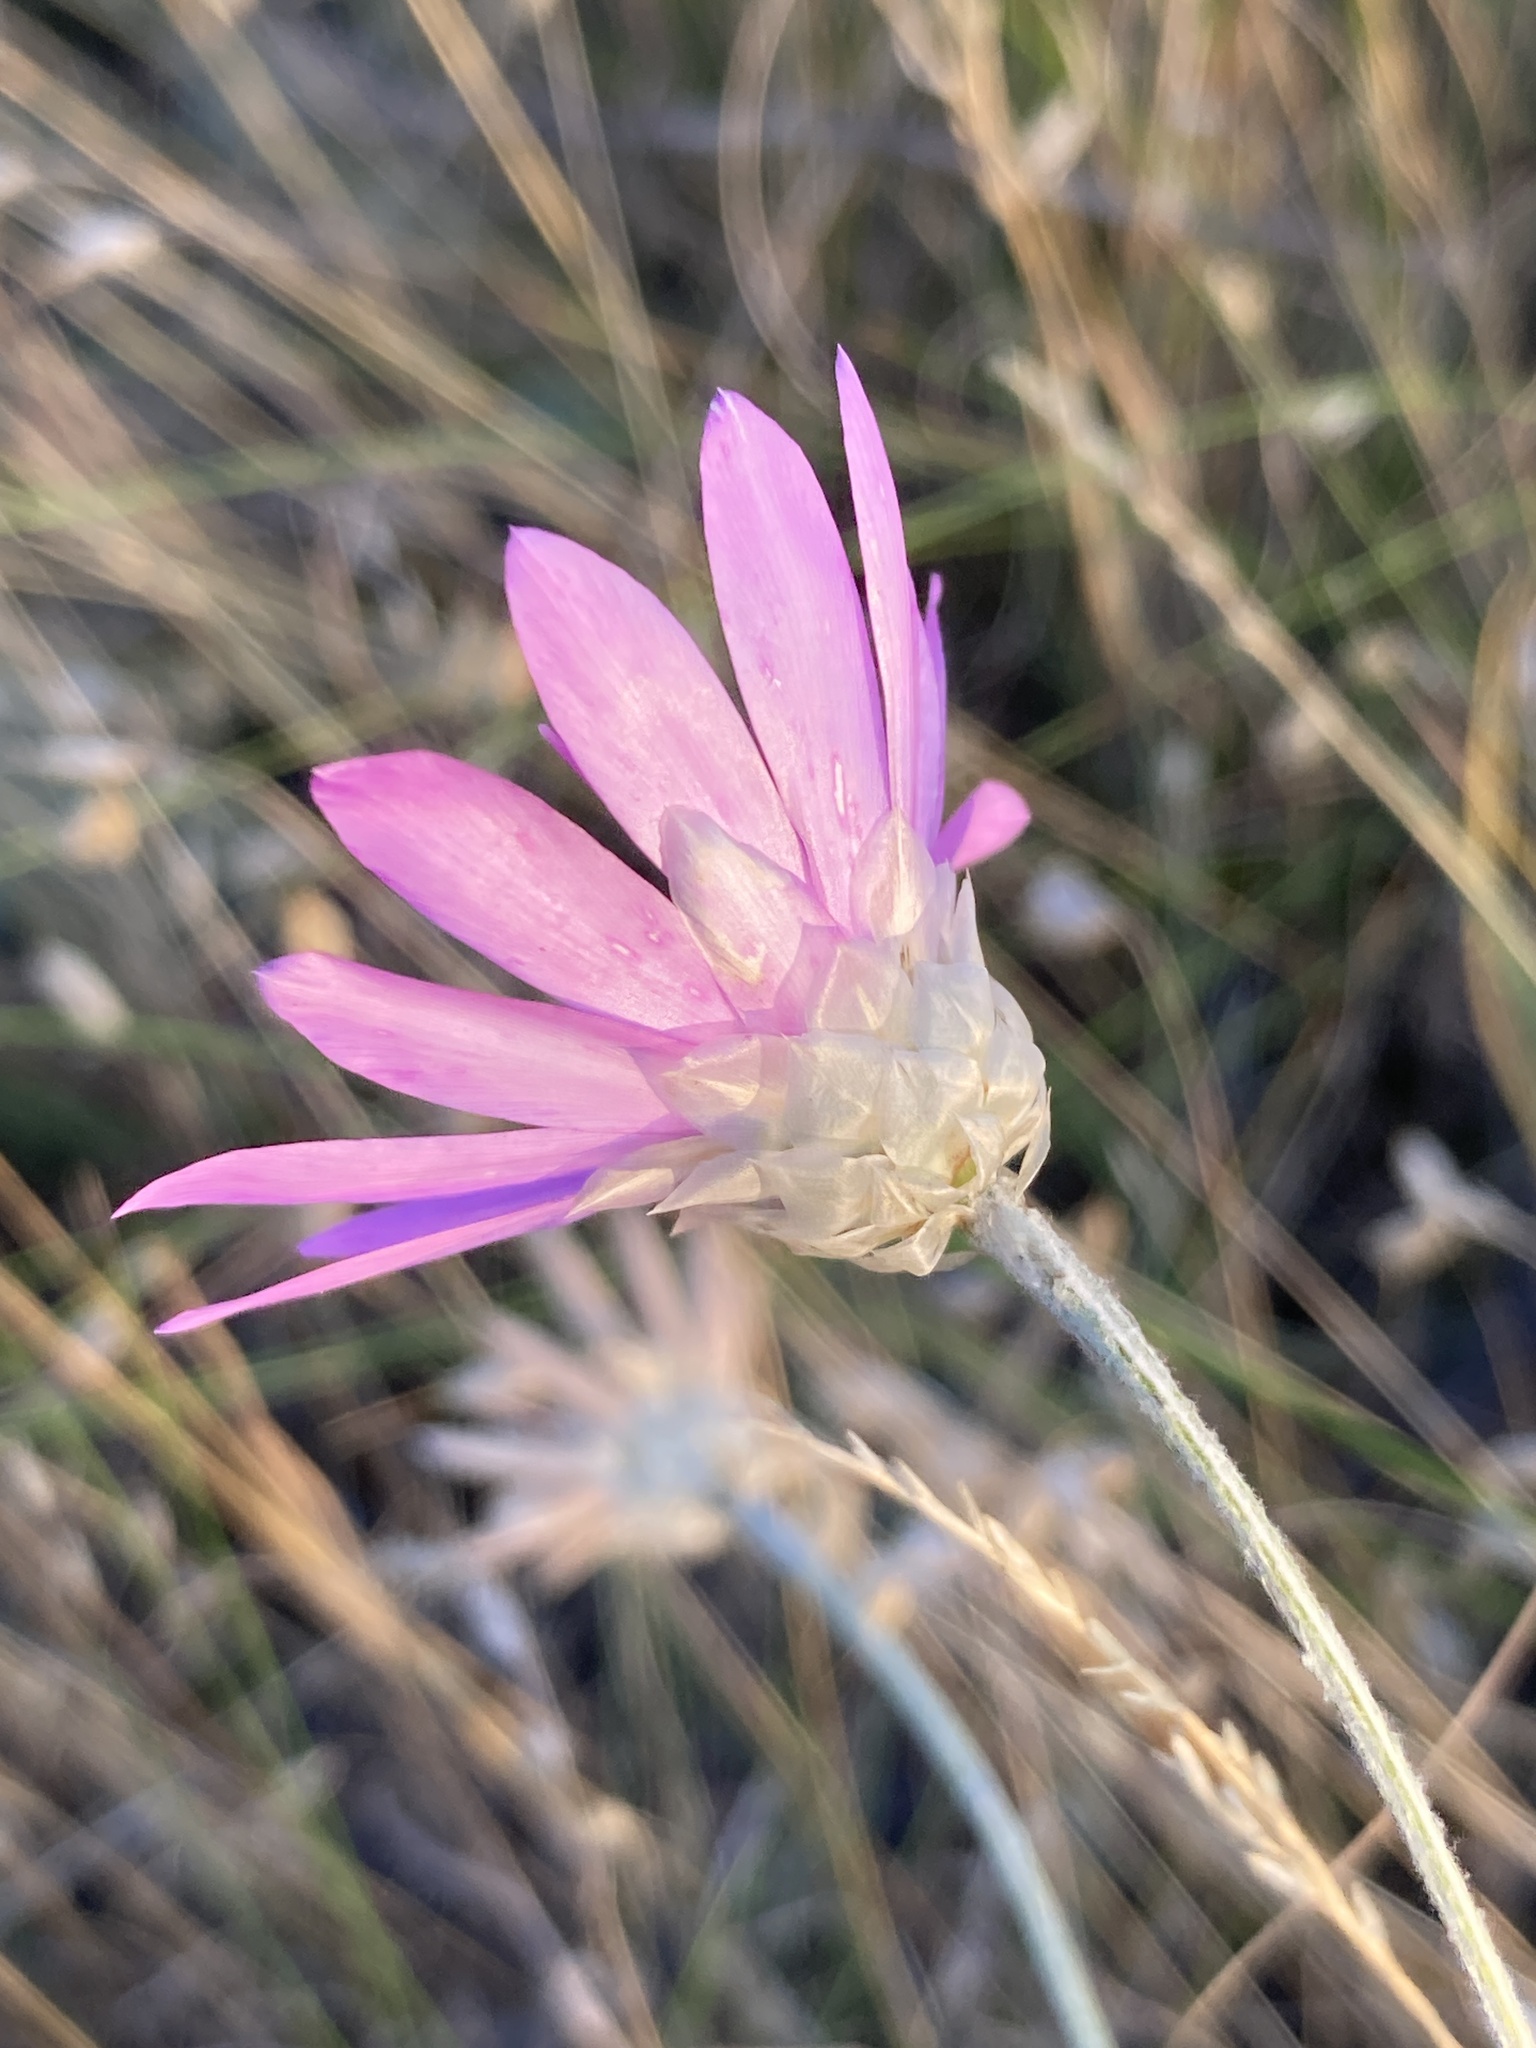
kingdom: Plantae
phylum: Tracheophyta
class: Magnoliopsida
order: Asterales
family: Asteraceae
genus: Xeranthemum
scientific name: Xeranthemum annuum
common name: Immortelle
